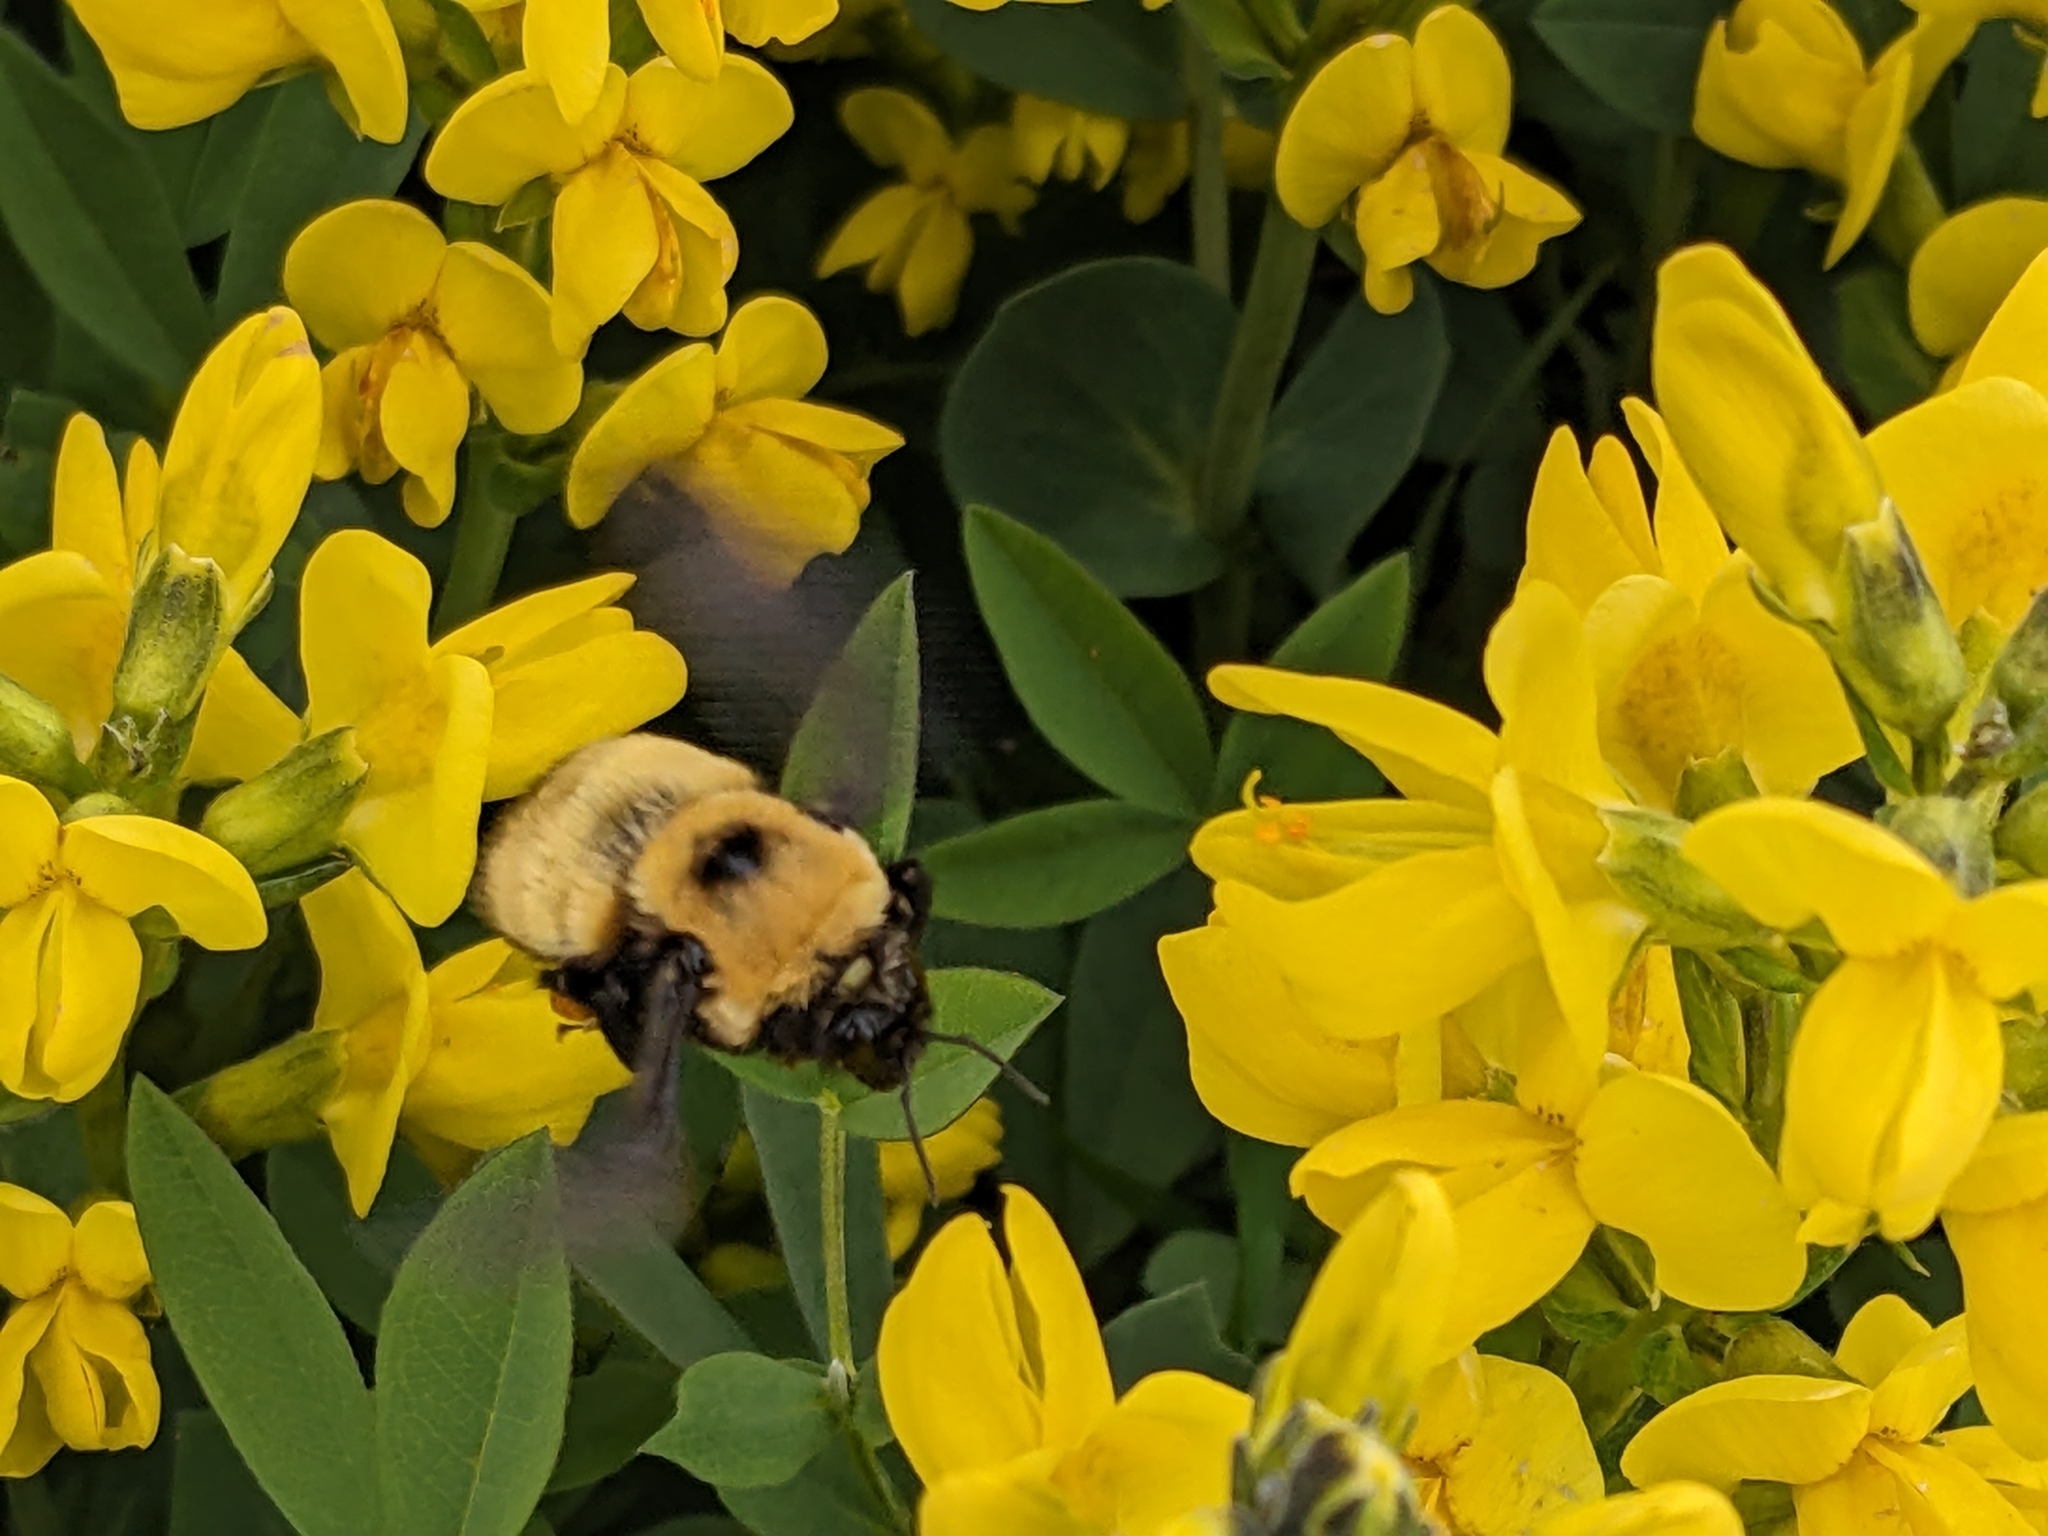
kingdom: Animalia
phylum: Arthropoda
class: Insecta
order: Hymenoptera
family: Apidae
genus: Bombus
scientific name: Bombus nevadensis
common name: Nevada bumble bee
